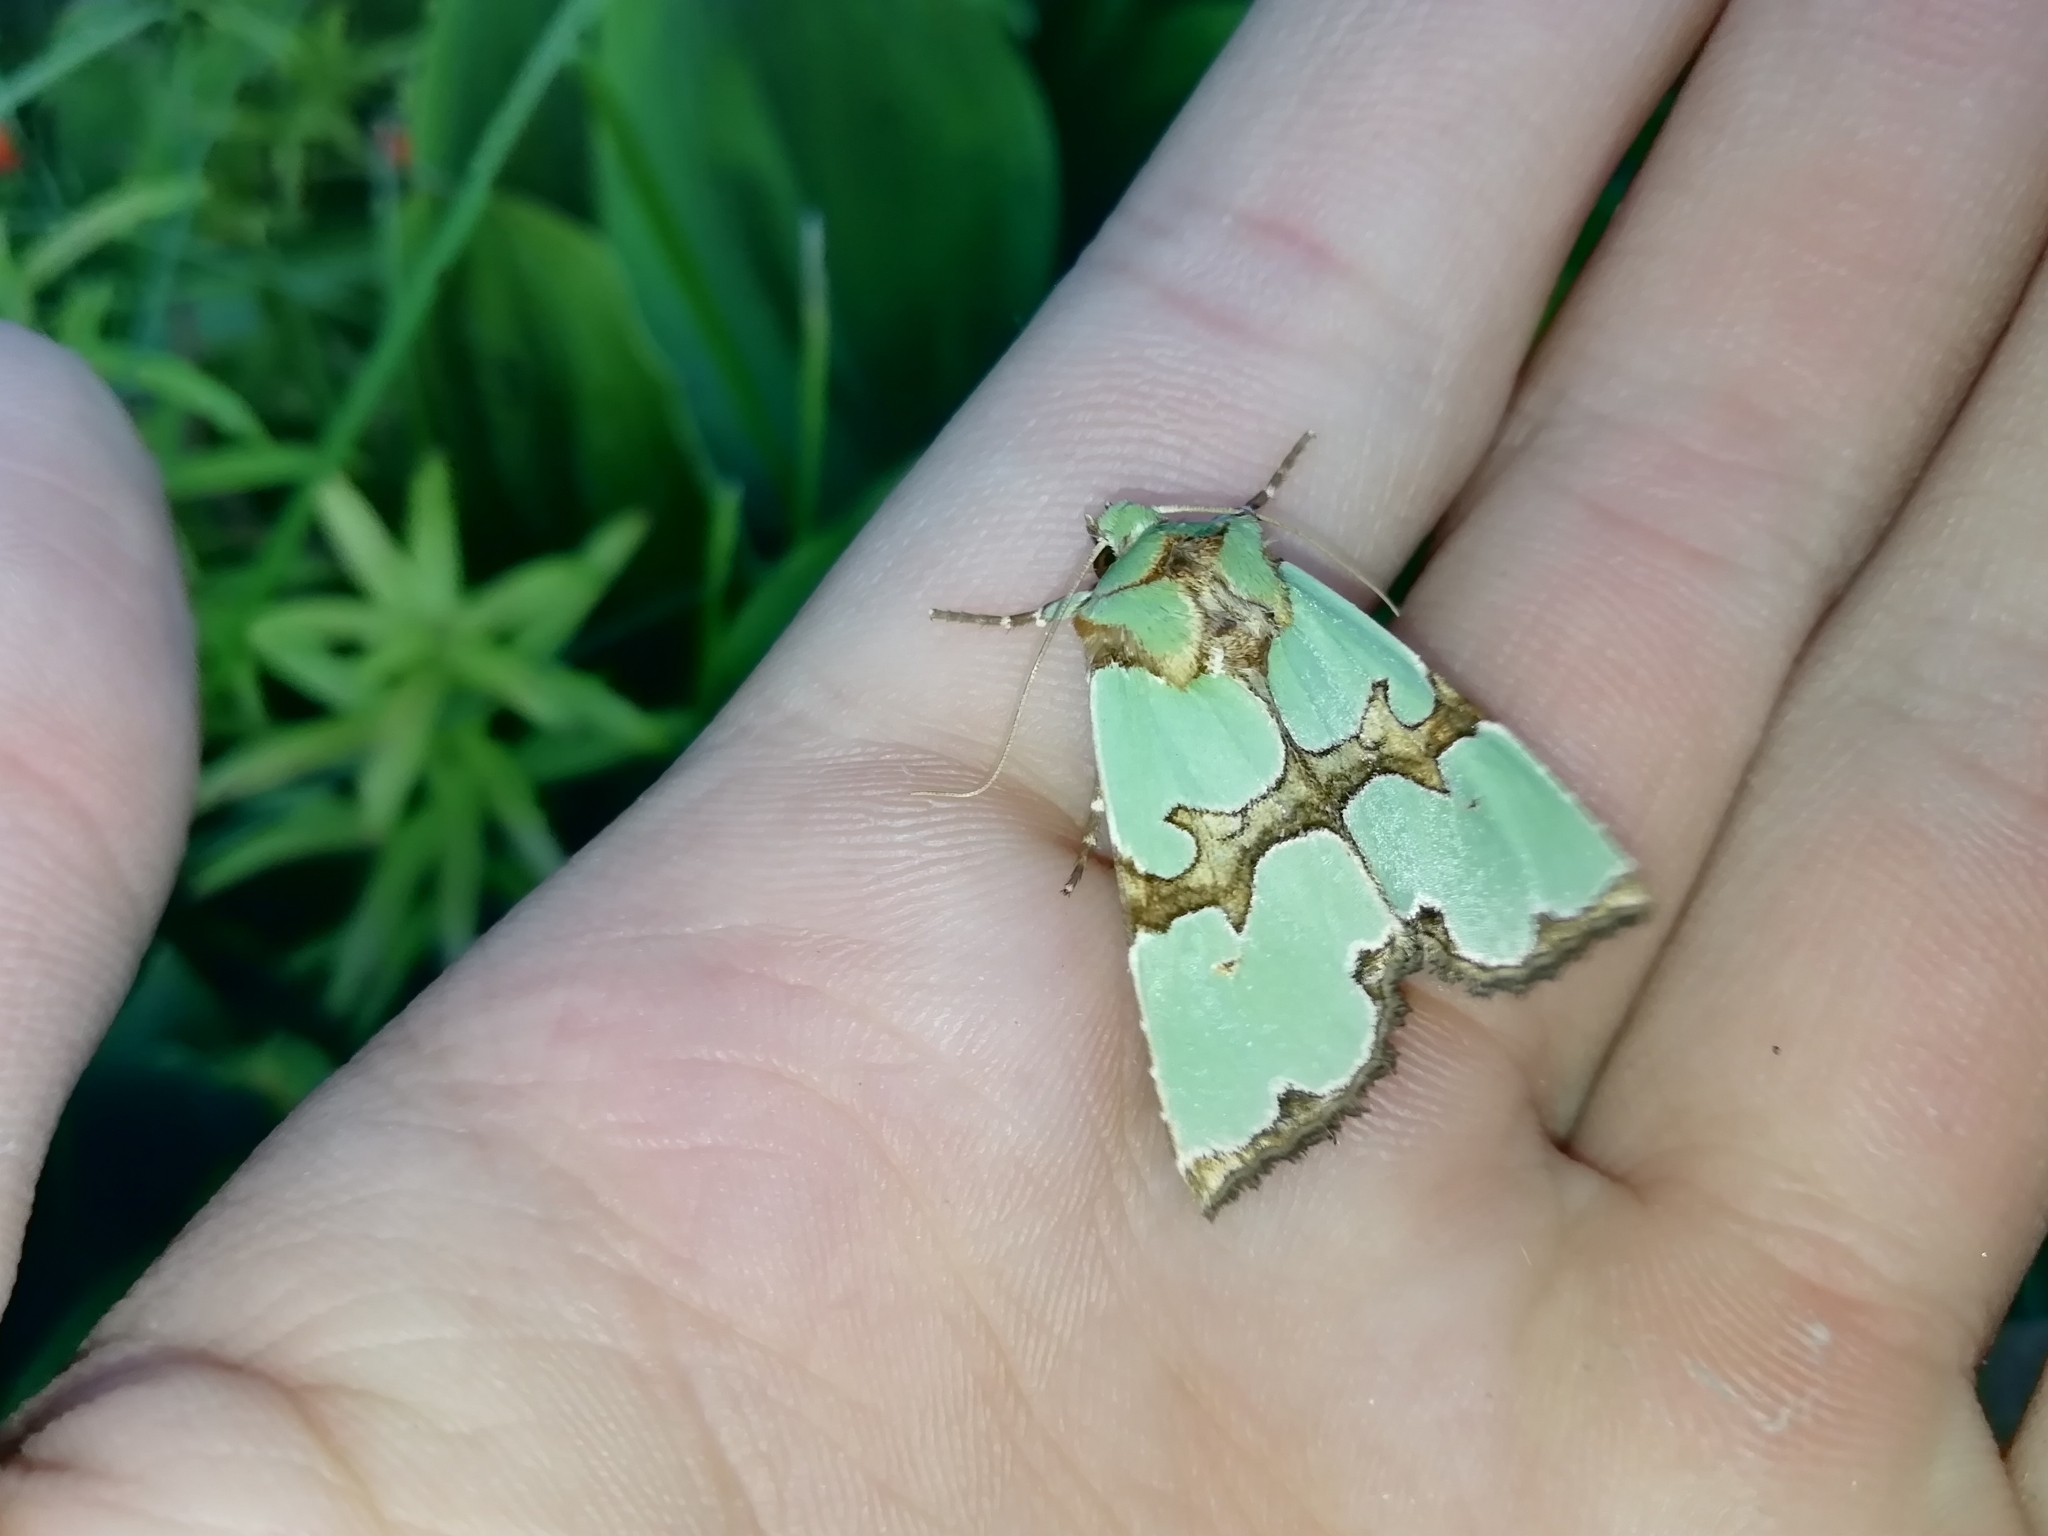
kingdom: Animalia
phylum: Arthropoda
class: Insecta
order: Lepidoptera
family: Noctuidae
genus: Staurophora
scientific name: Staurophora celsia
